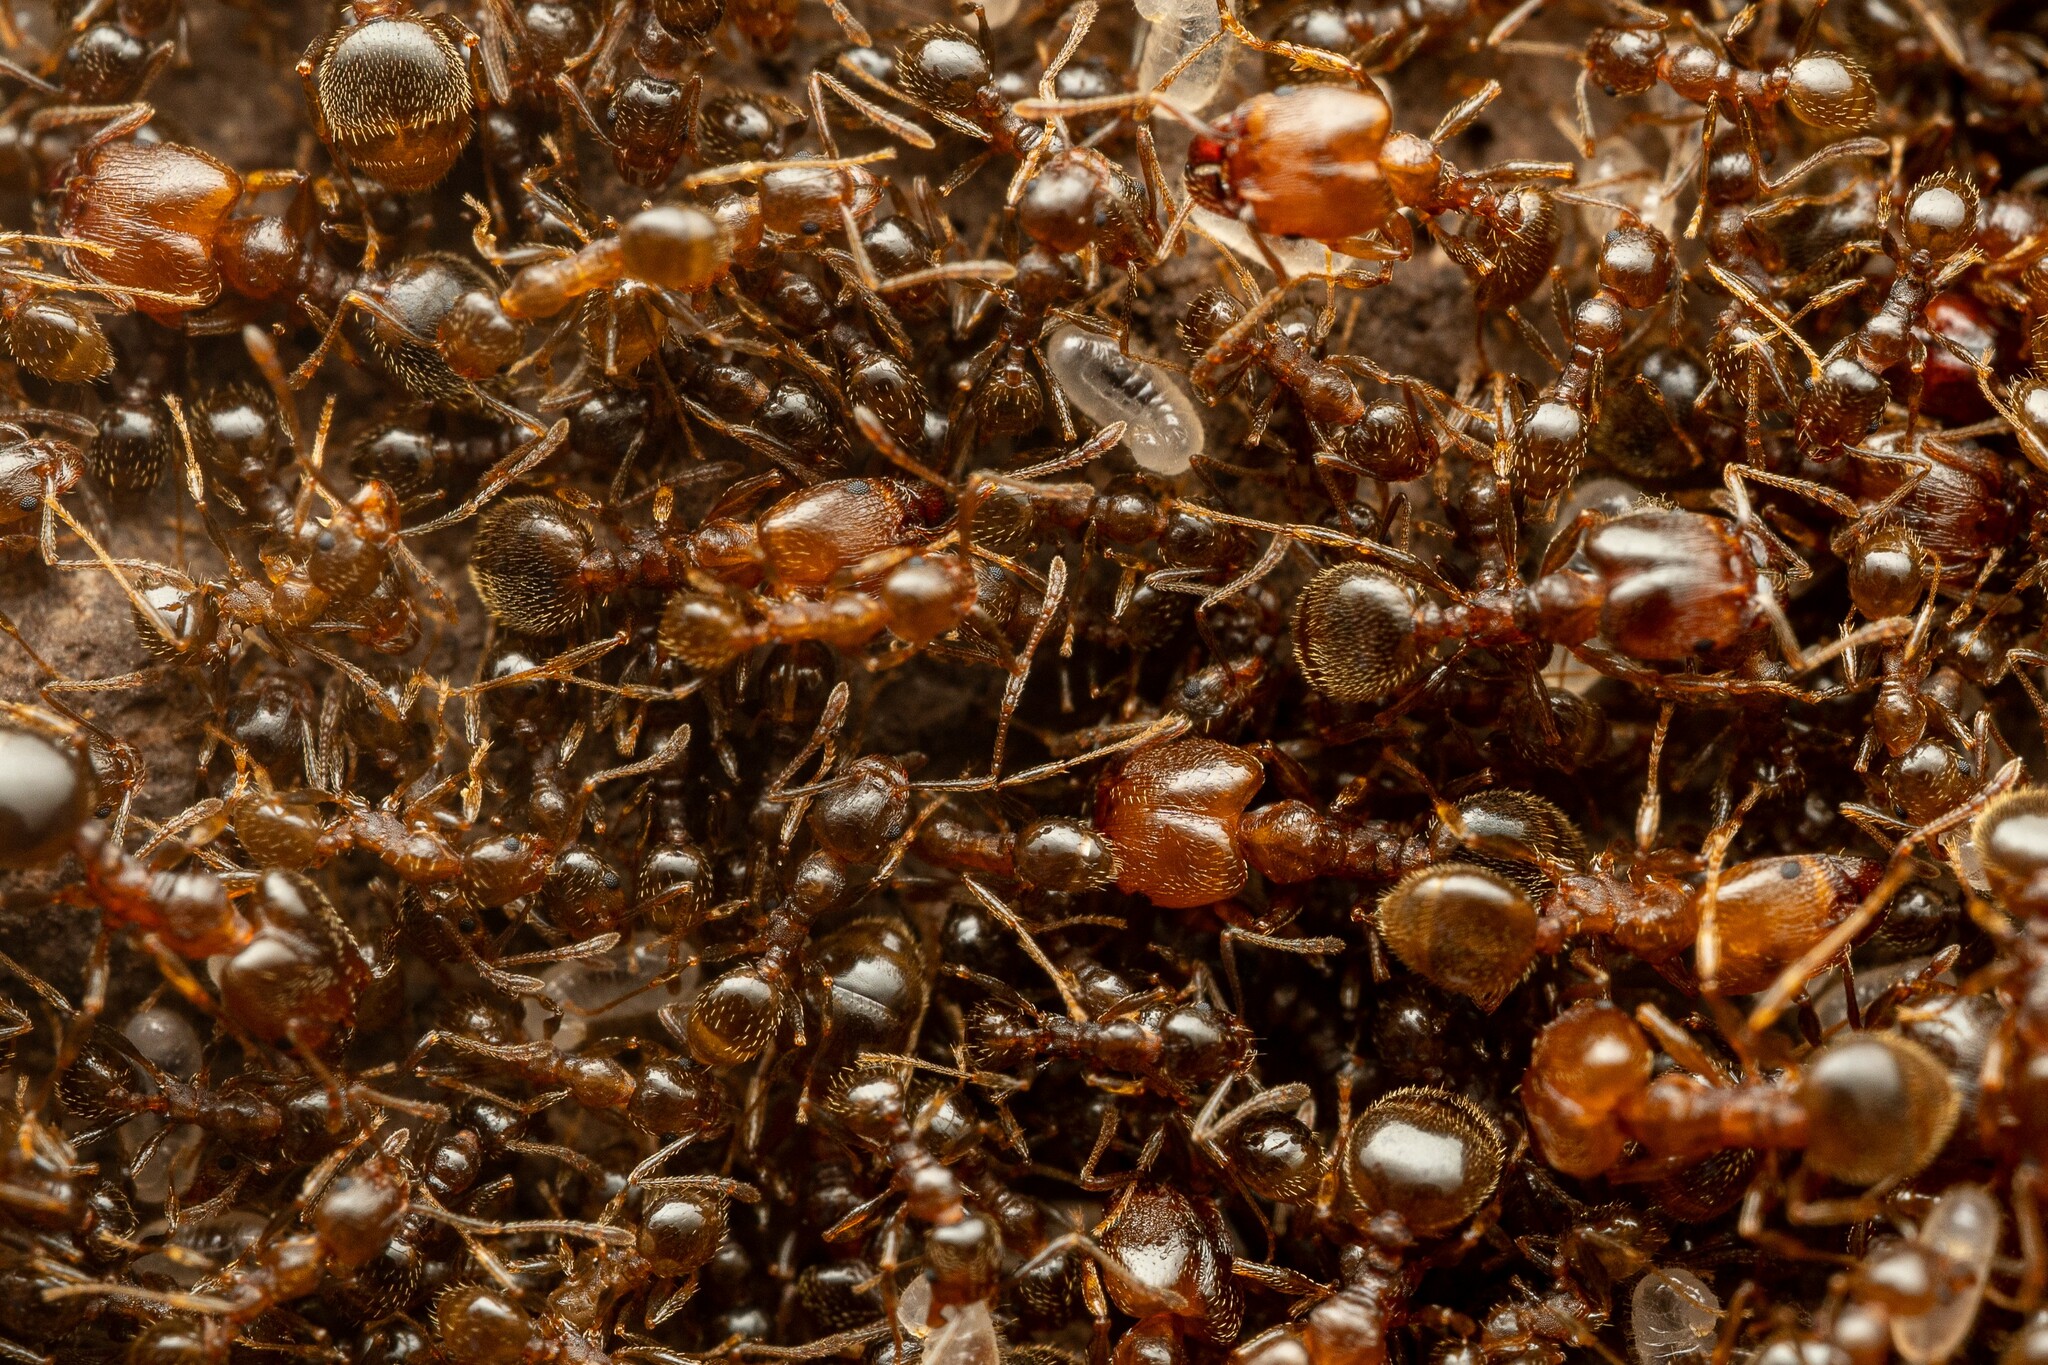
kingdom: Animalia
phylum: Arthropoda
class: Insecta
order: Hymenoptera
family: Formicidae
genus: Pheidole
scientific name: Pheidole diversipilosa
